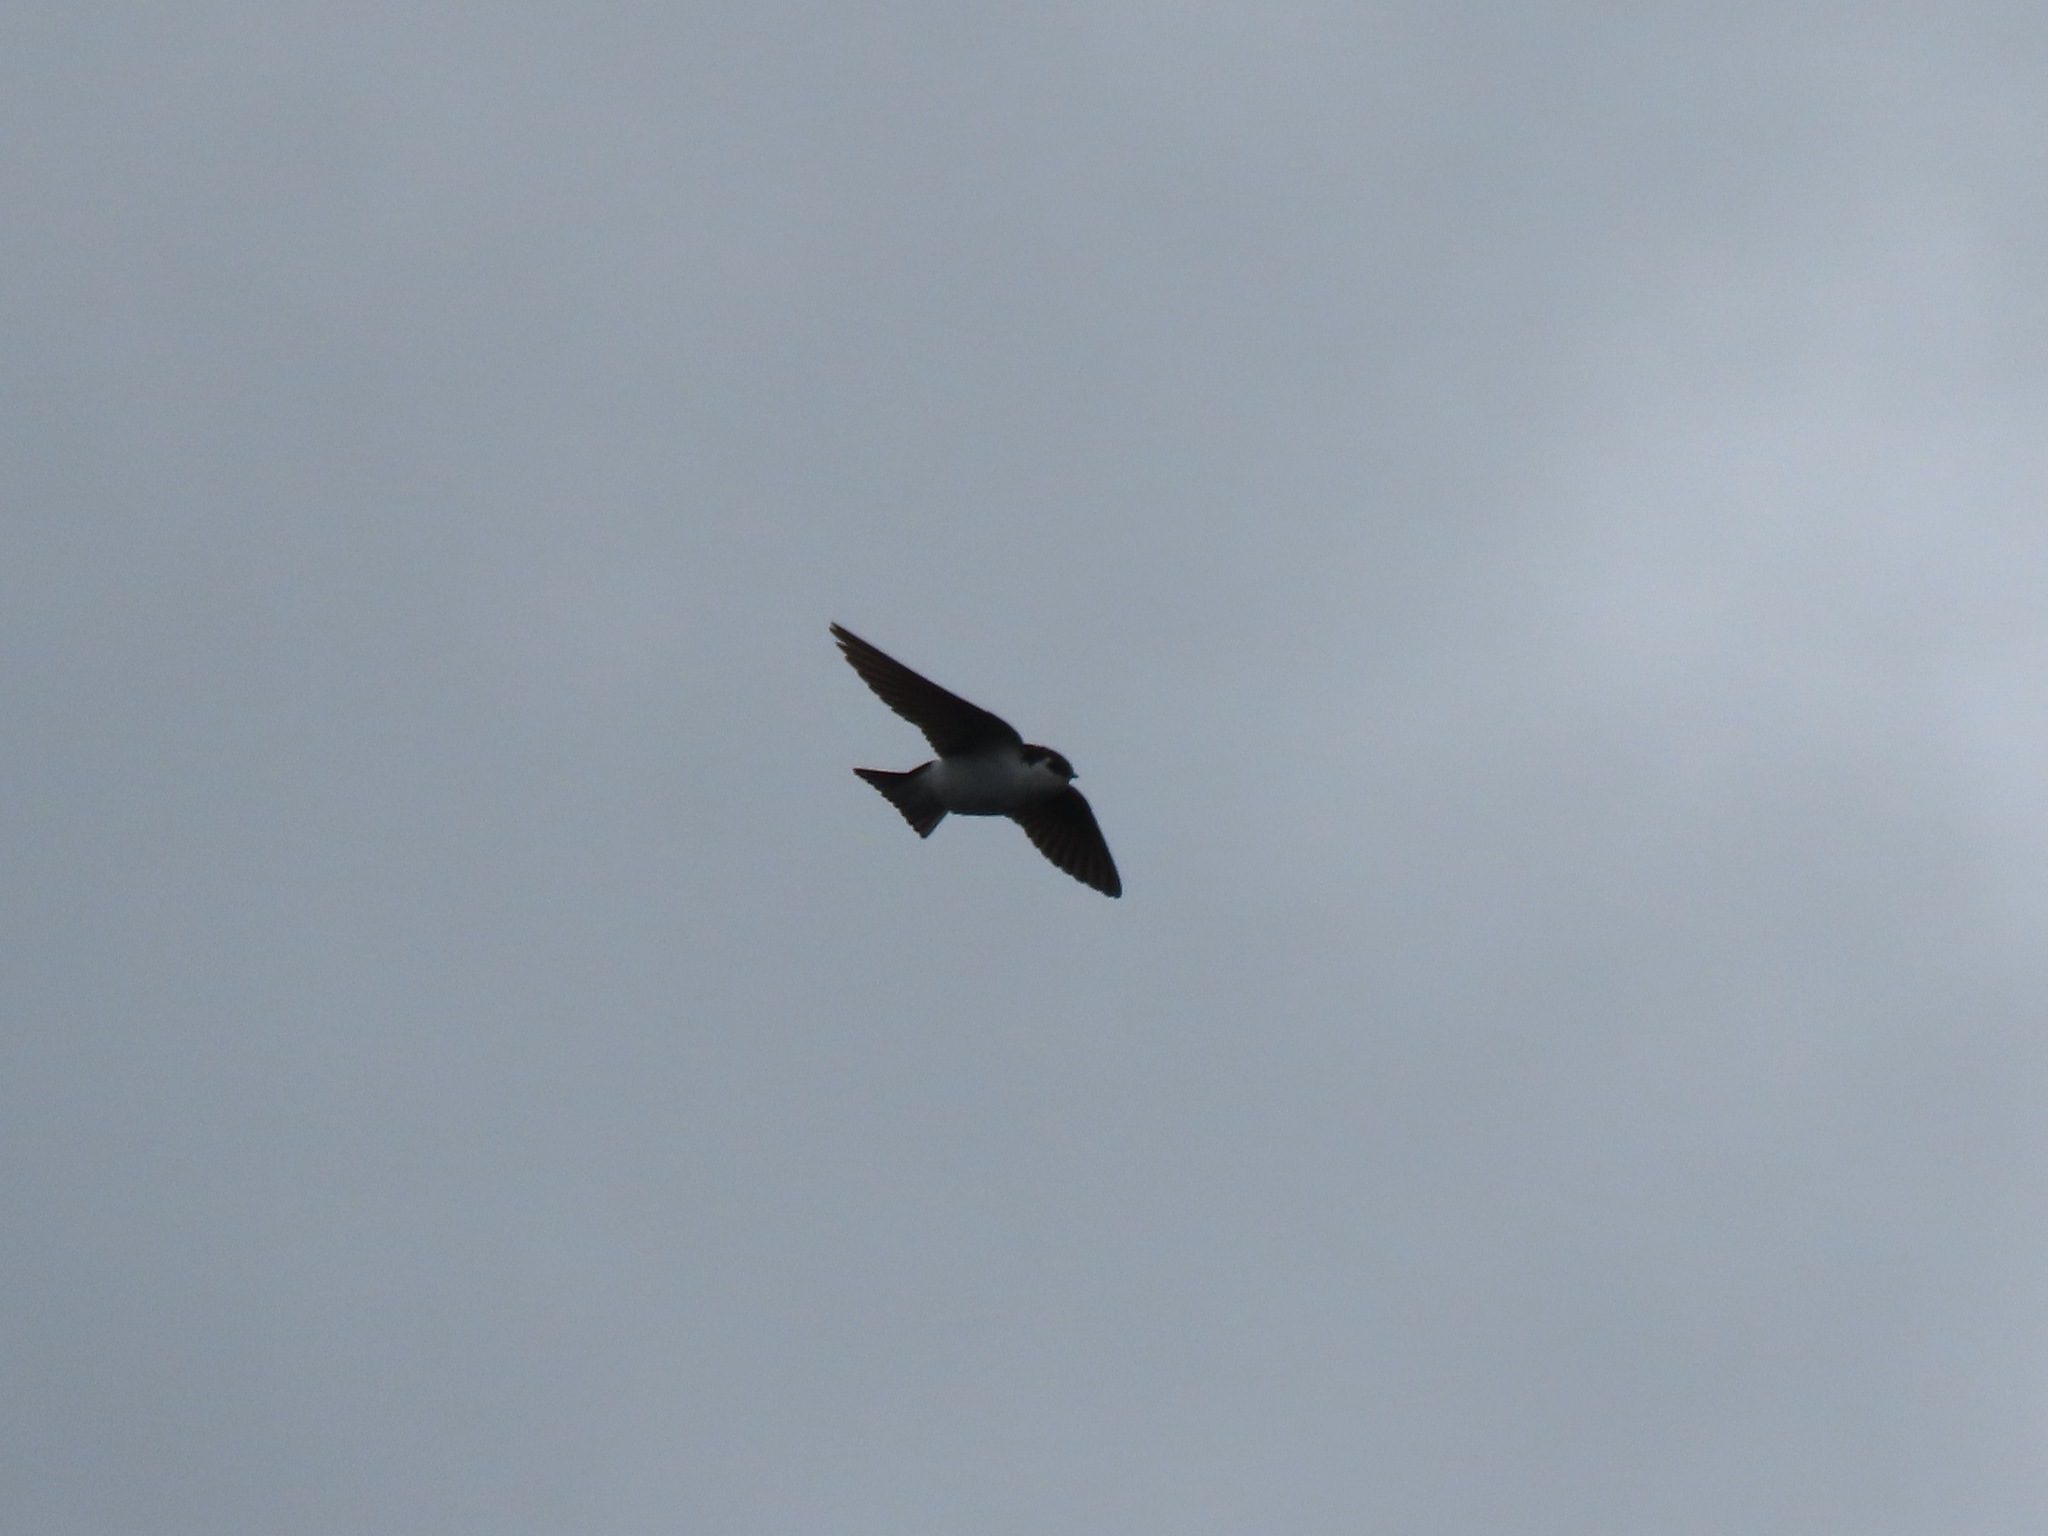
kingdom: Animalia
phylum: Chordata
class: Aves
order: Passeriformes
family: Hirundinidae
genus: Tachycineta
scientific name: Tachycineta thalassina
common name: Violet-green swallow
